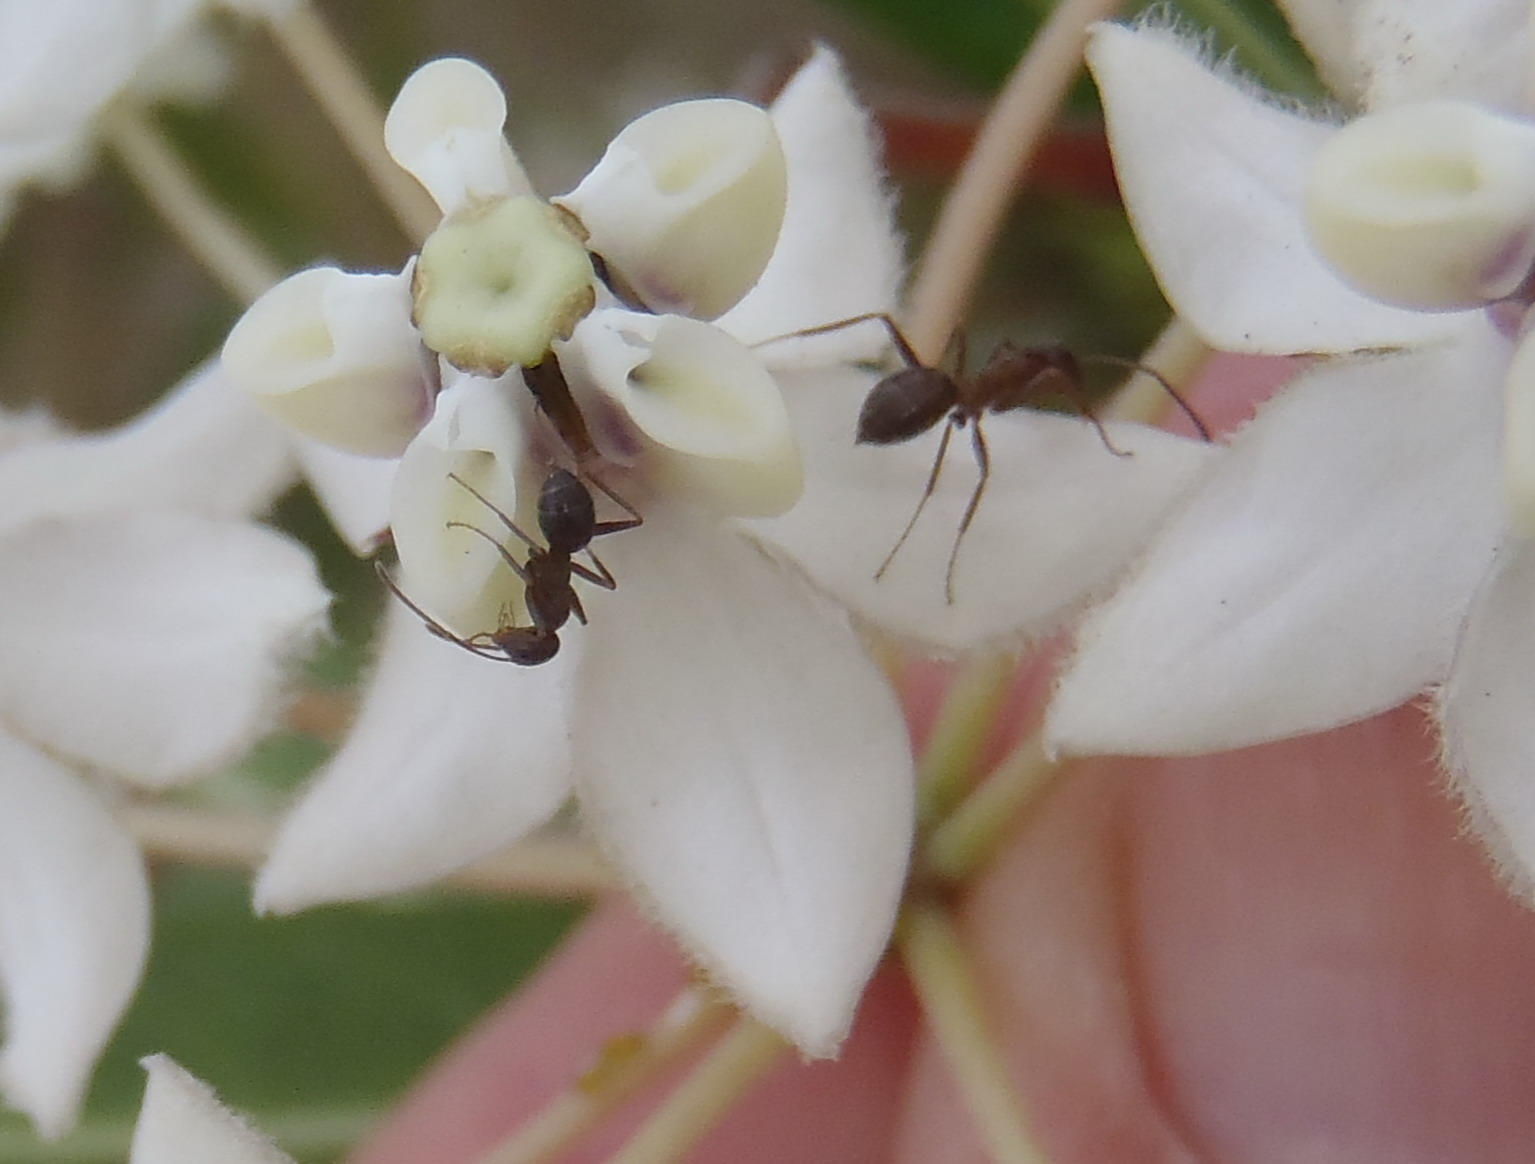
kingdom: Animalia
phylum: Arthropoda
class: Insecta
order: Hymenoptera
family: Formicidae
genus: Anoplolepis
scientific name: Anoplolepis rufescens
